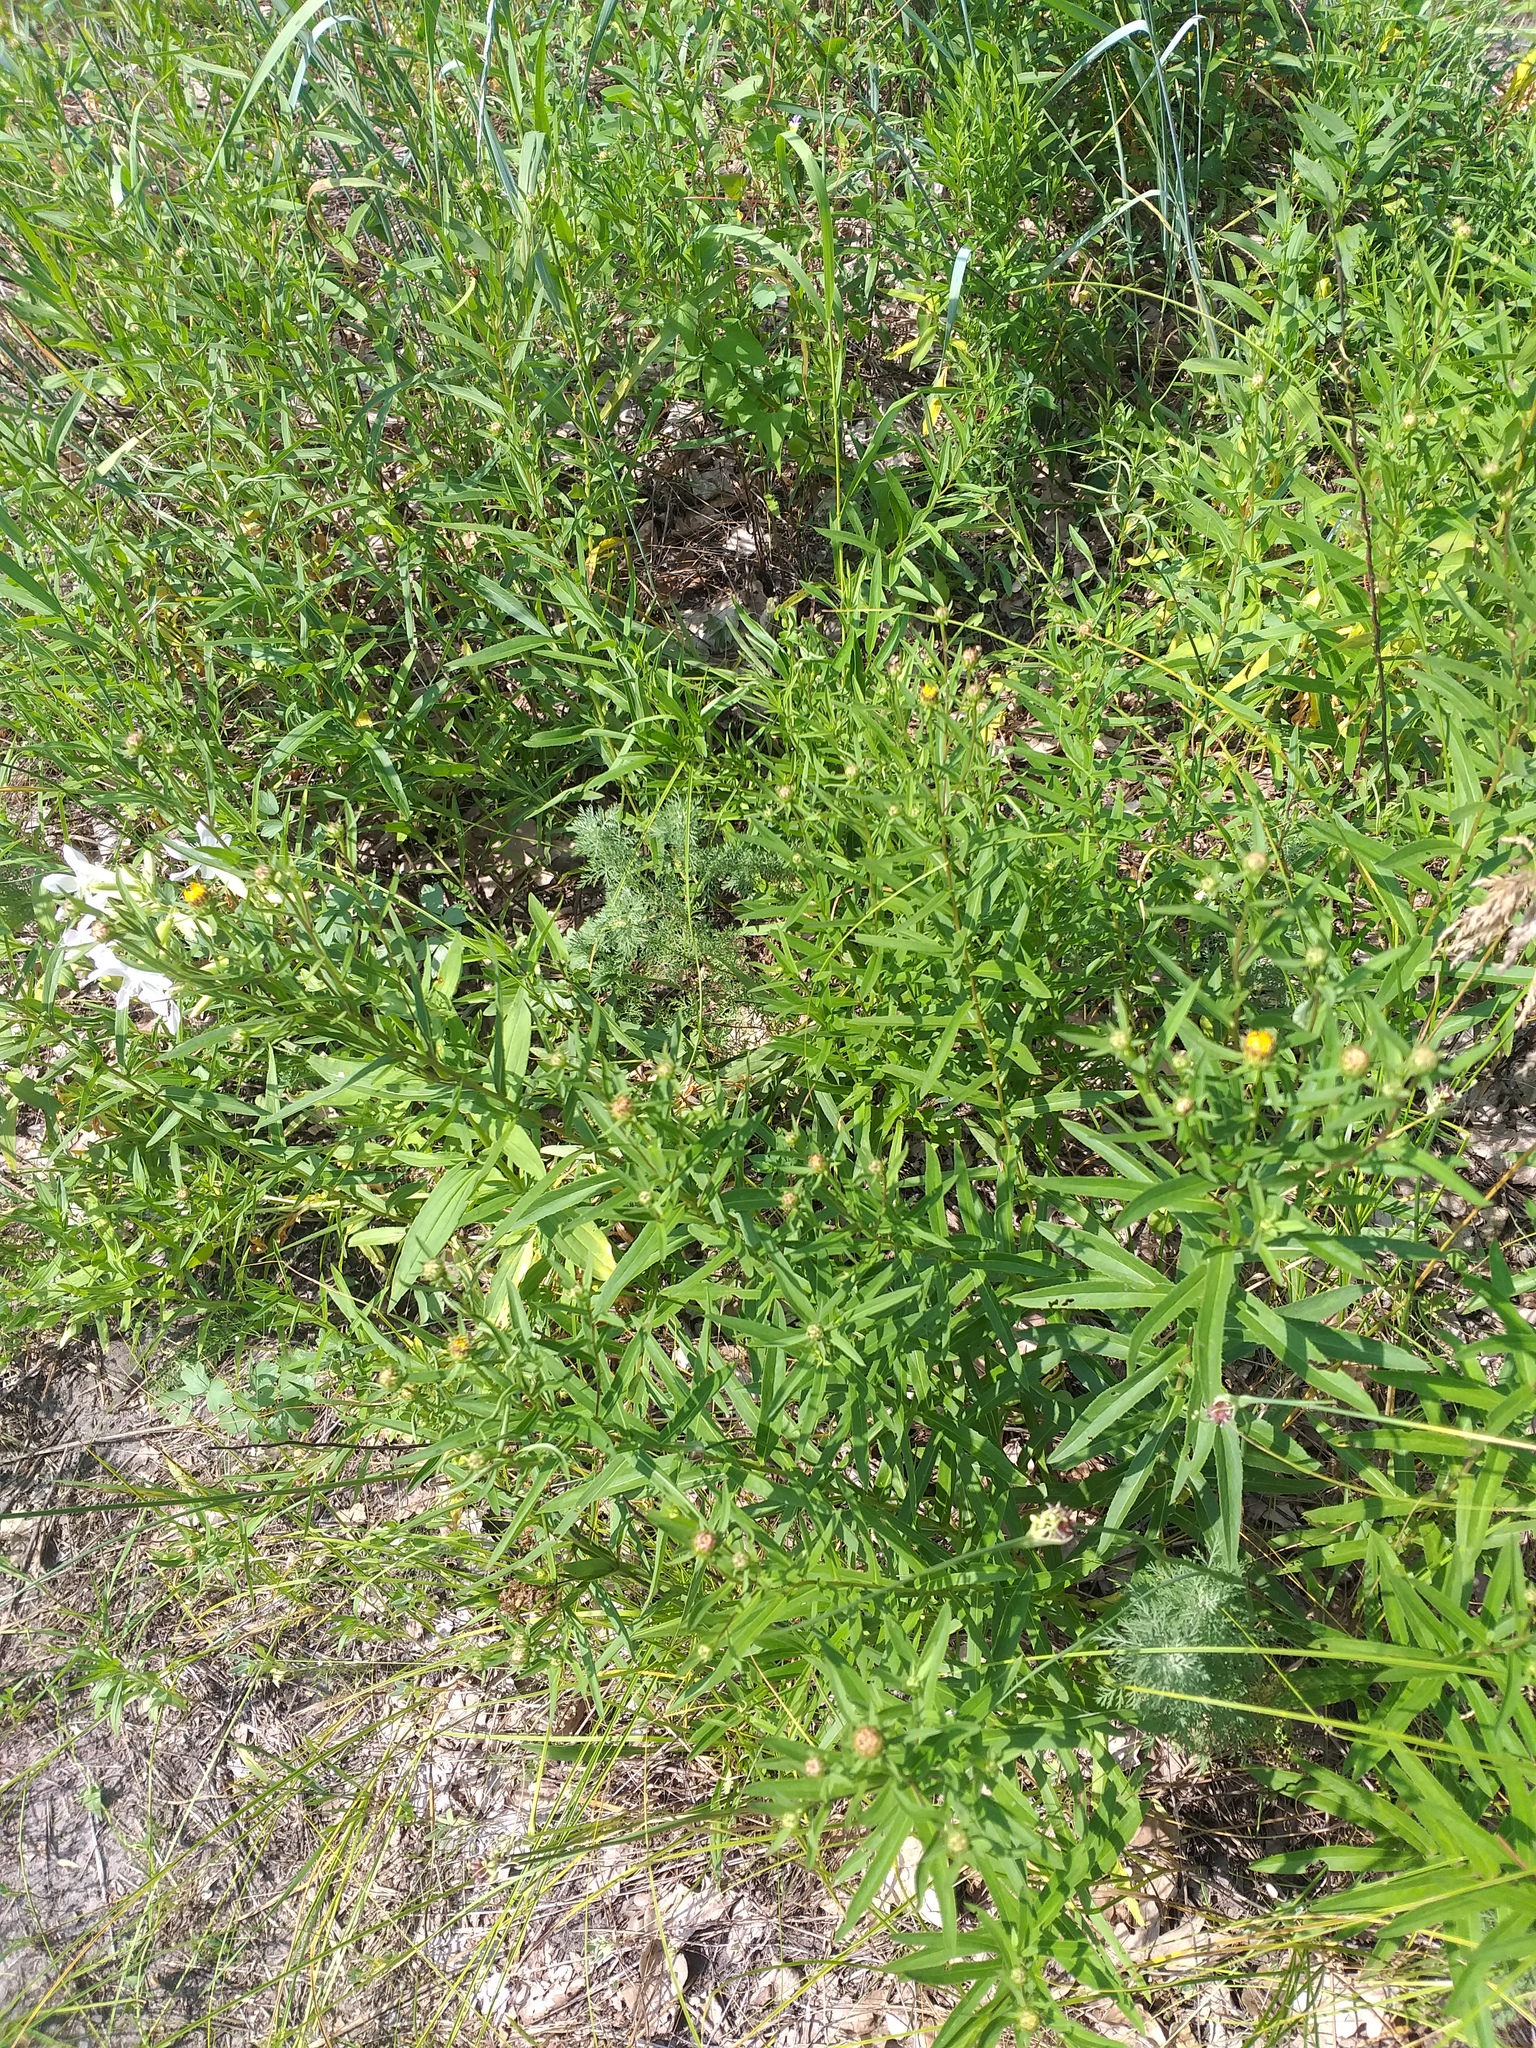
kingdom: Plantae
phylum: Tracheophyta
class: Magnoliopsida
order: Asterales
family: Asteraceae
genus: Pentanema
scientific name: Pentanema asperum
